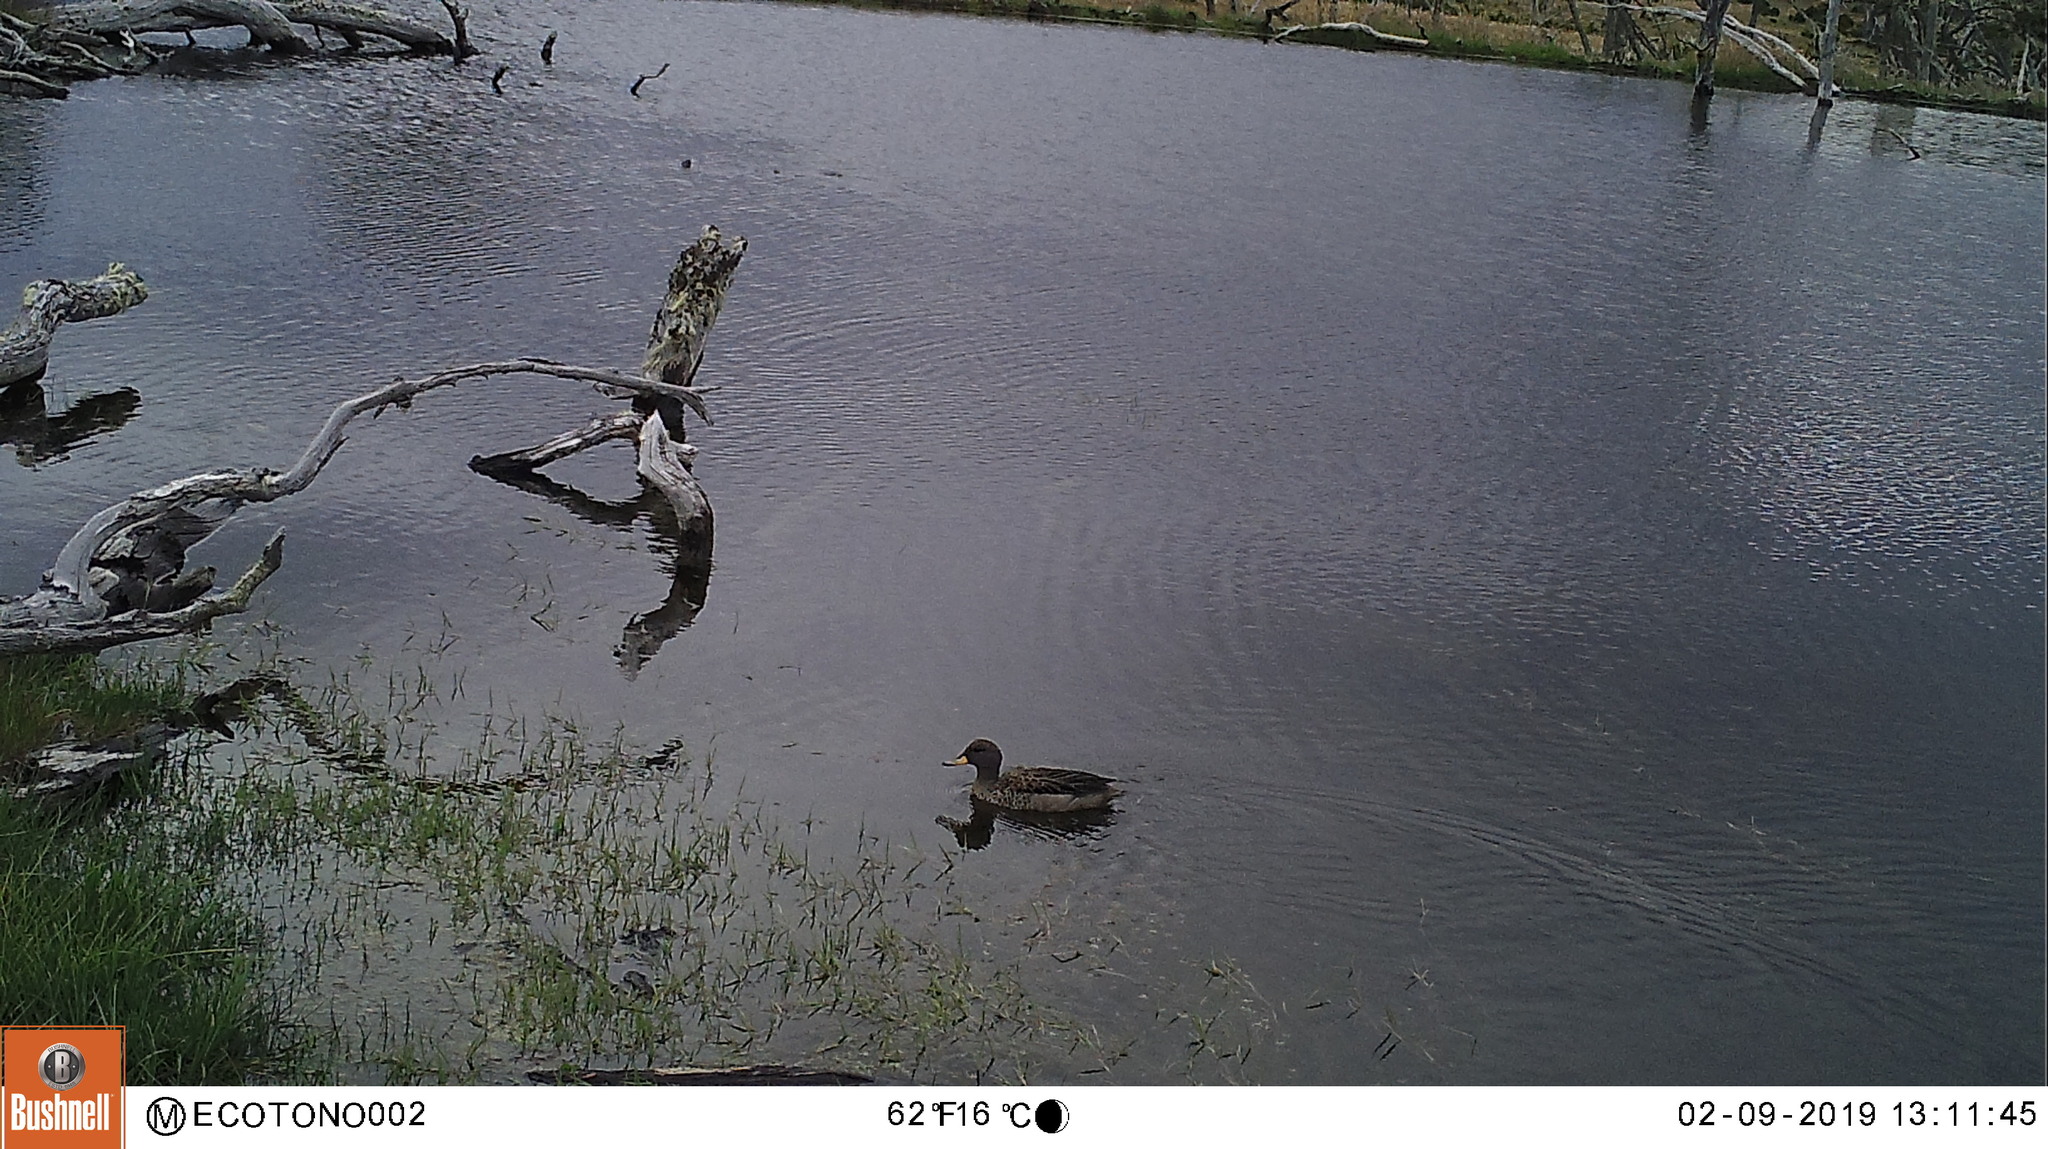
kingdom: Animalia
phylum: Chordata
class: Aves
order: Anseriformes
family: Anatidae
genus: Anas
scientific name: Anas flavirostris
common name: Yellow-billed teal
